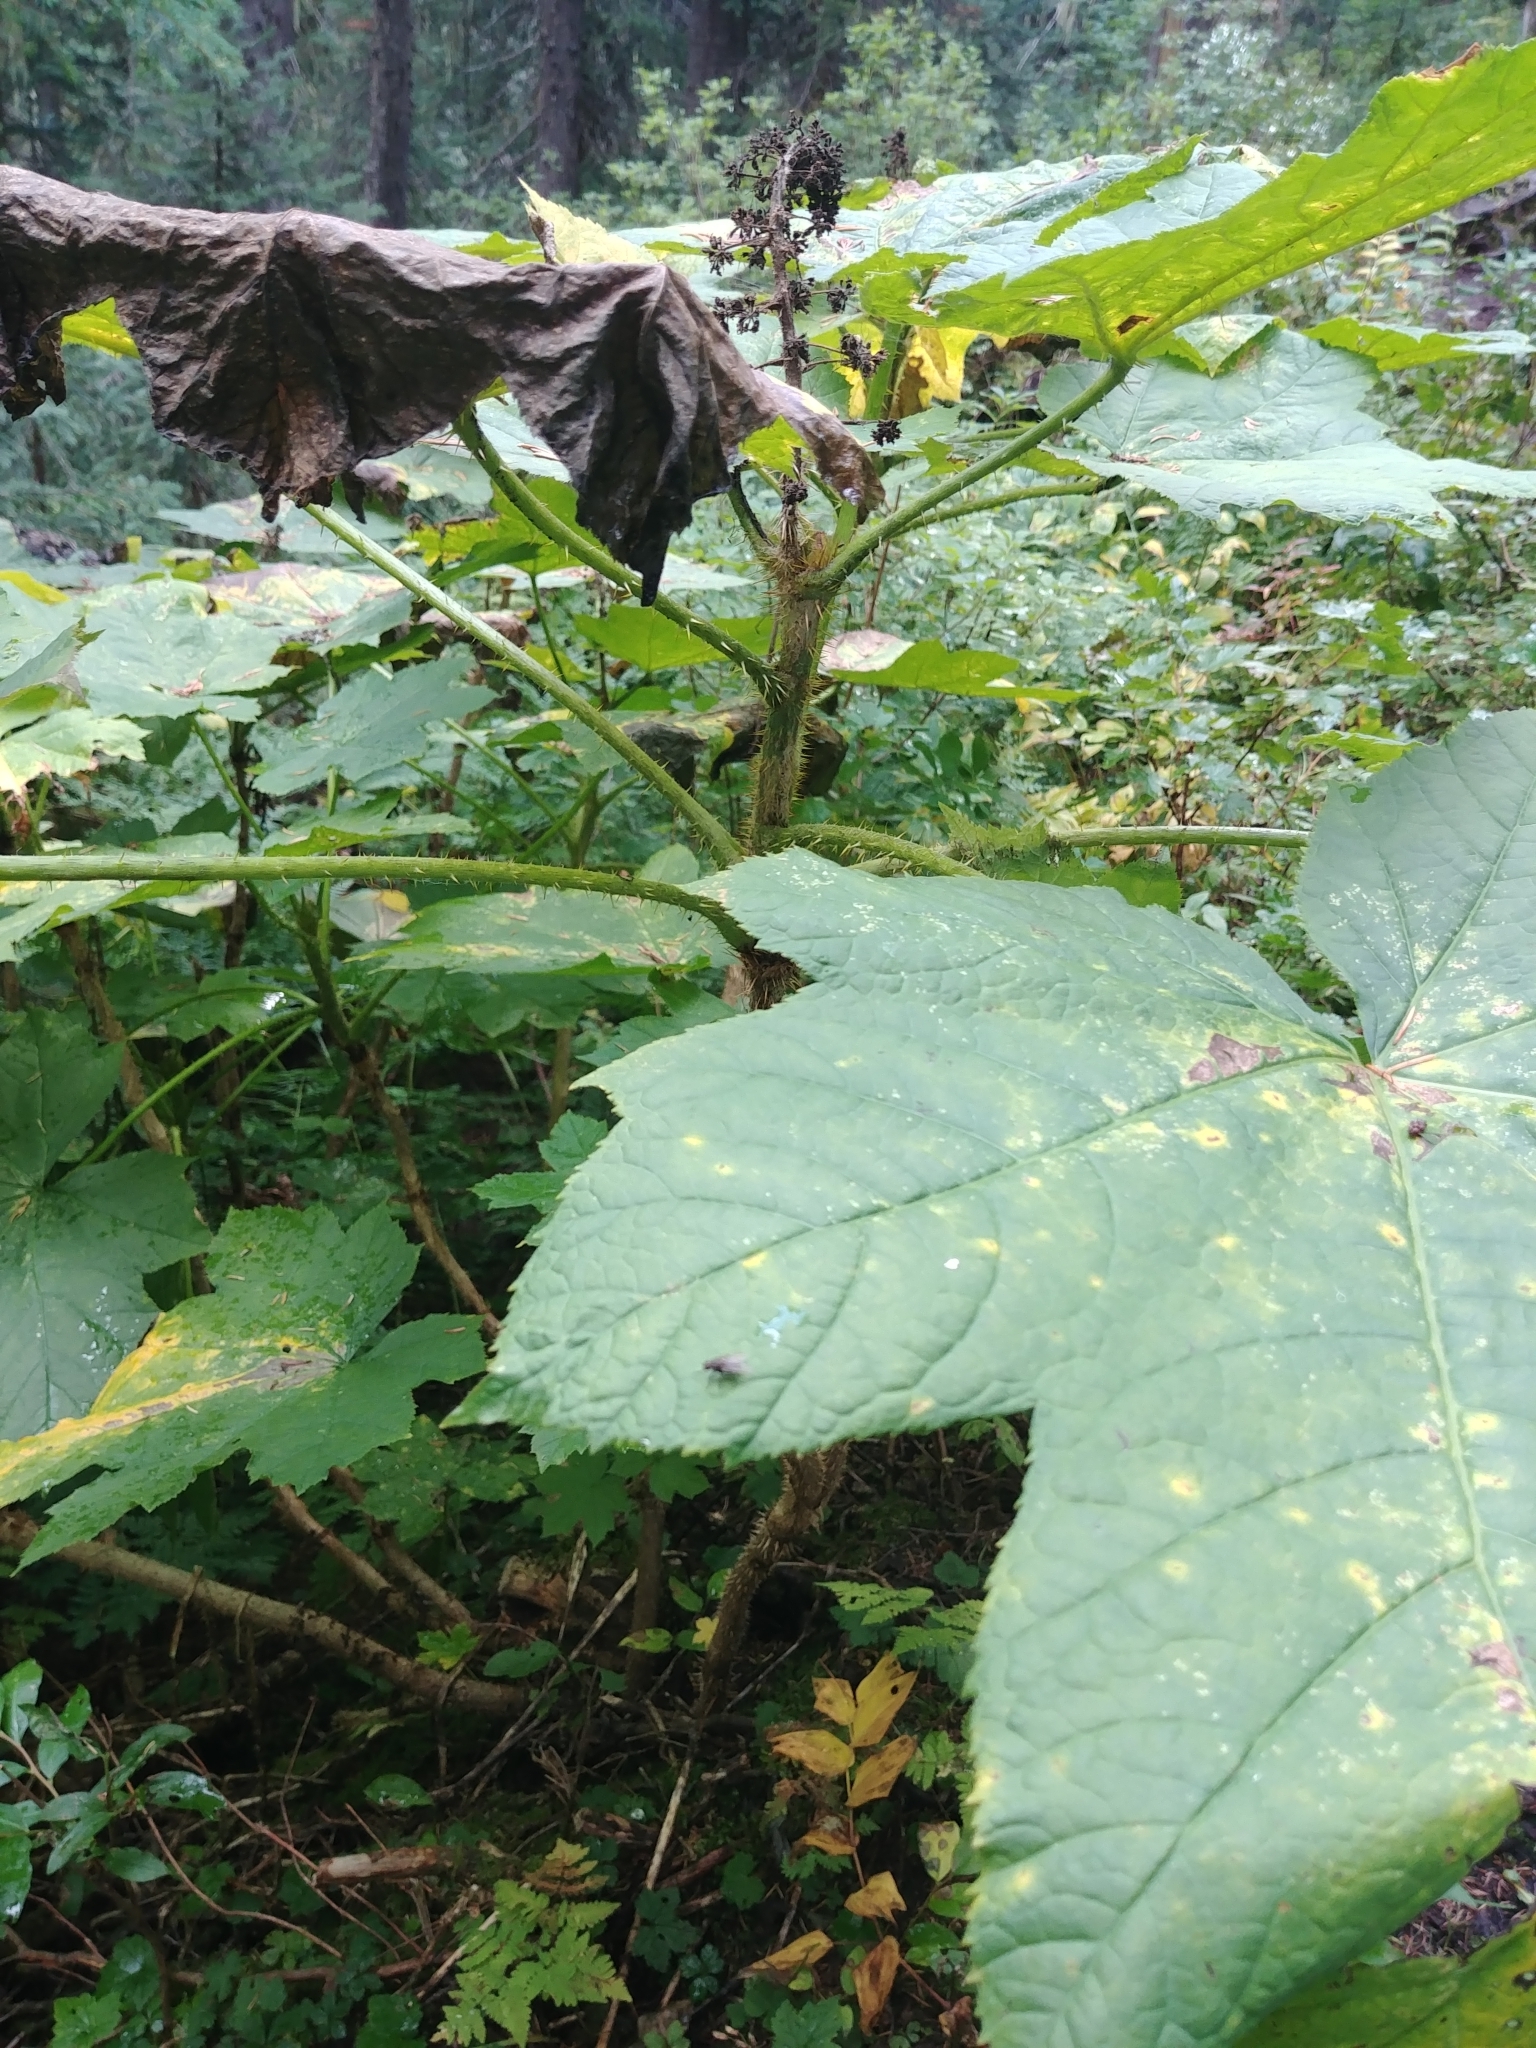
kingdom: Plantae
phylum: Tracheophyta
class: Magnoliopsida
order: Apiales
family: Araliaceae
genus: Oplopanax
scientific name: Oplopanax horridus
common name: Devil's walking-stick
